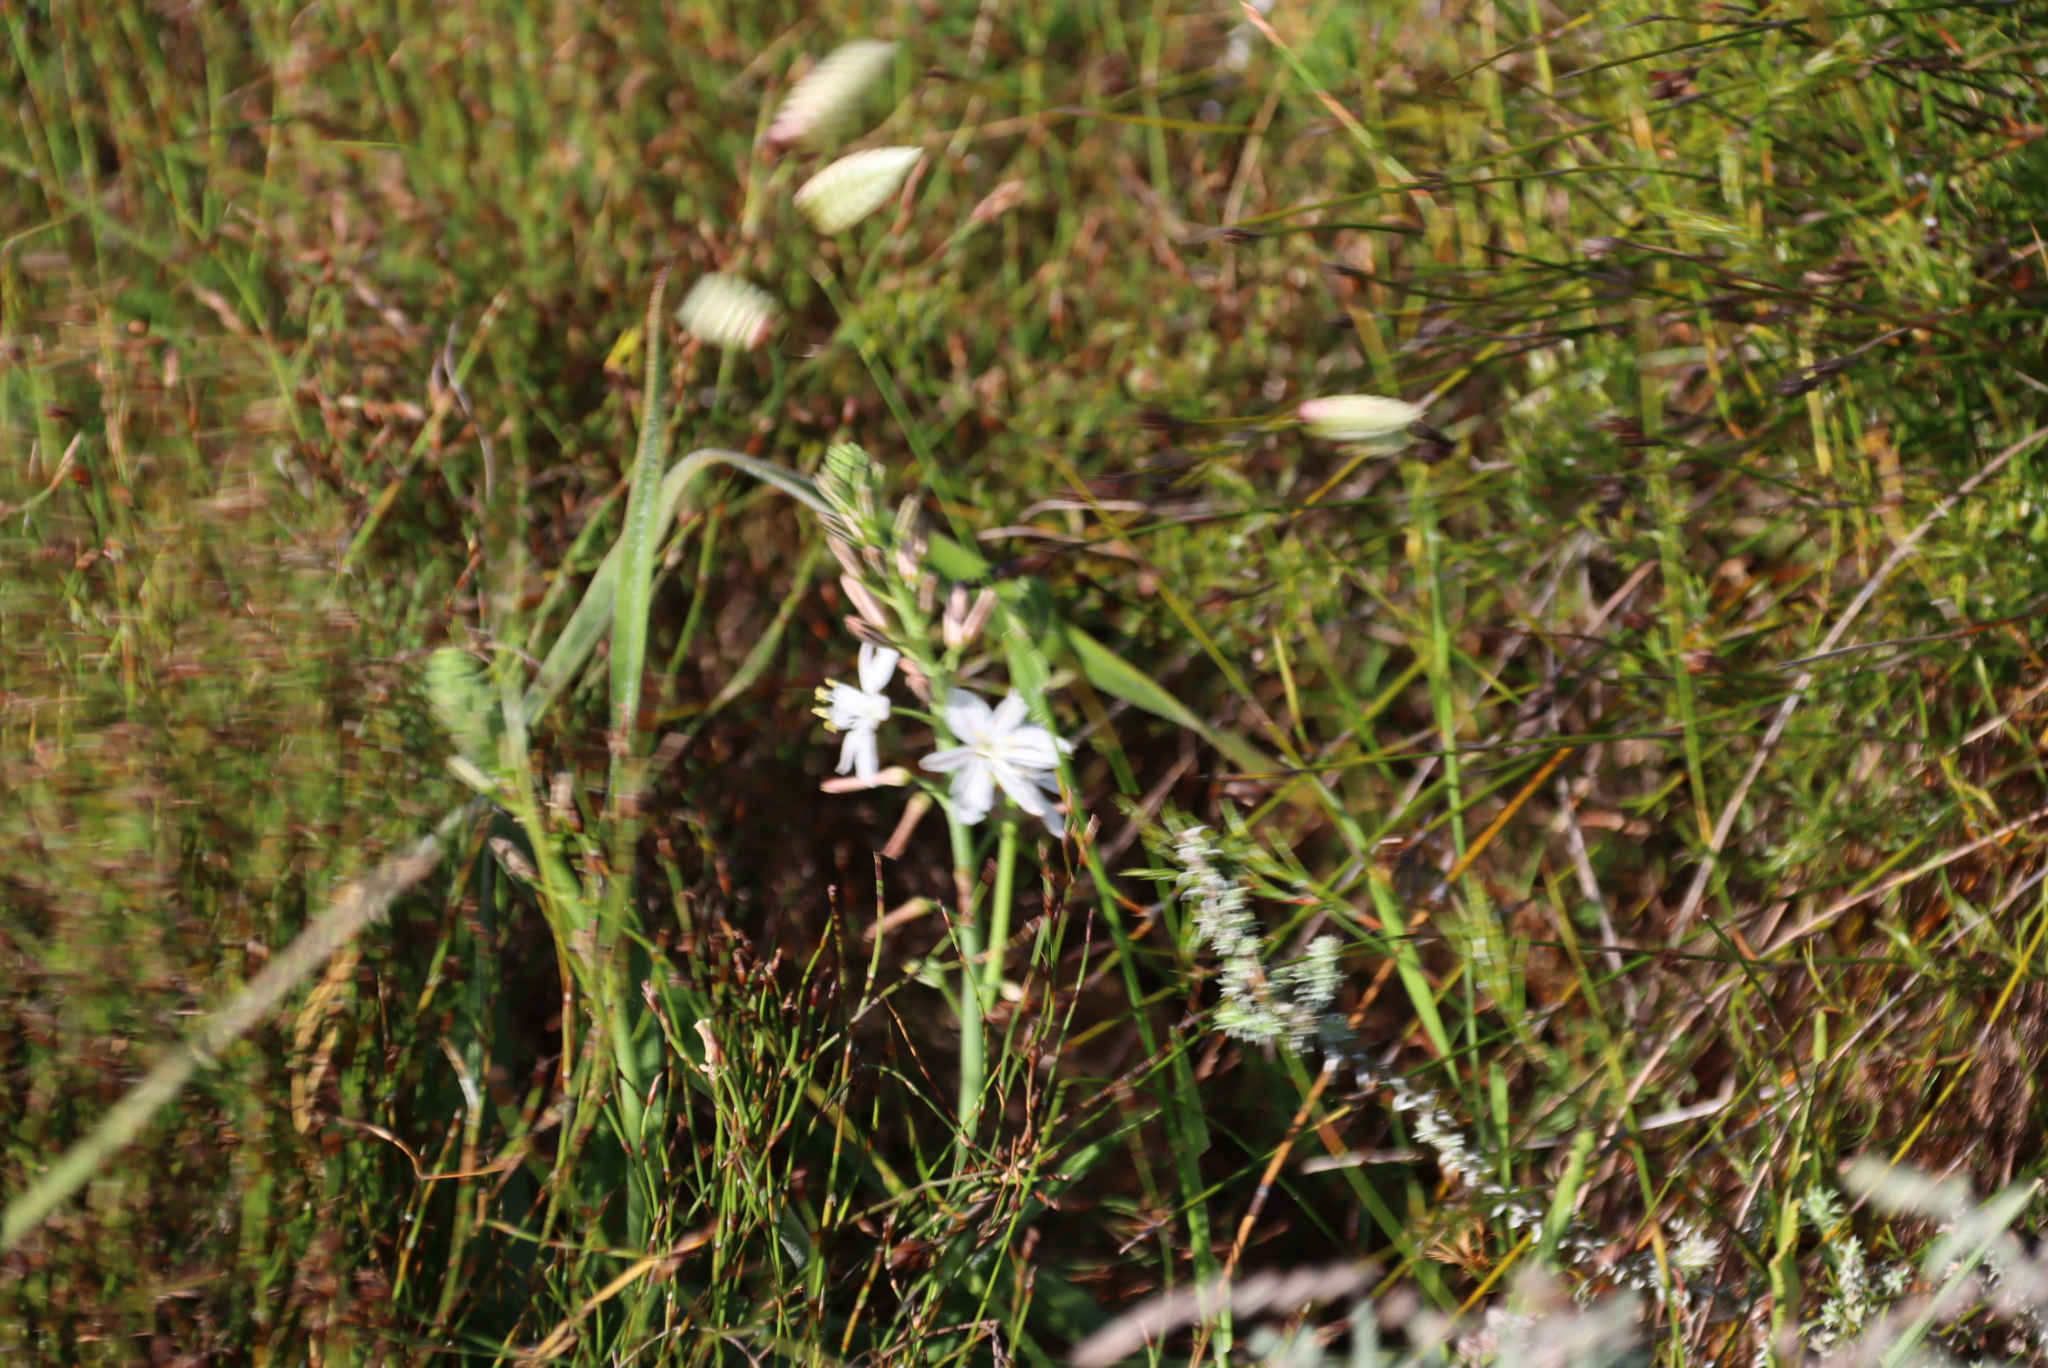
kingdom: Plantae
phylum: Tracheophyta
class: Liliopsida
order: Poales
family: Poaceae
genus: Briza
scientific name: Briza maxima
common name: Big quakinggrass
